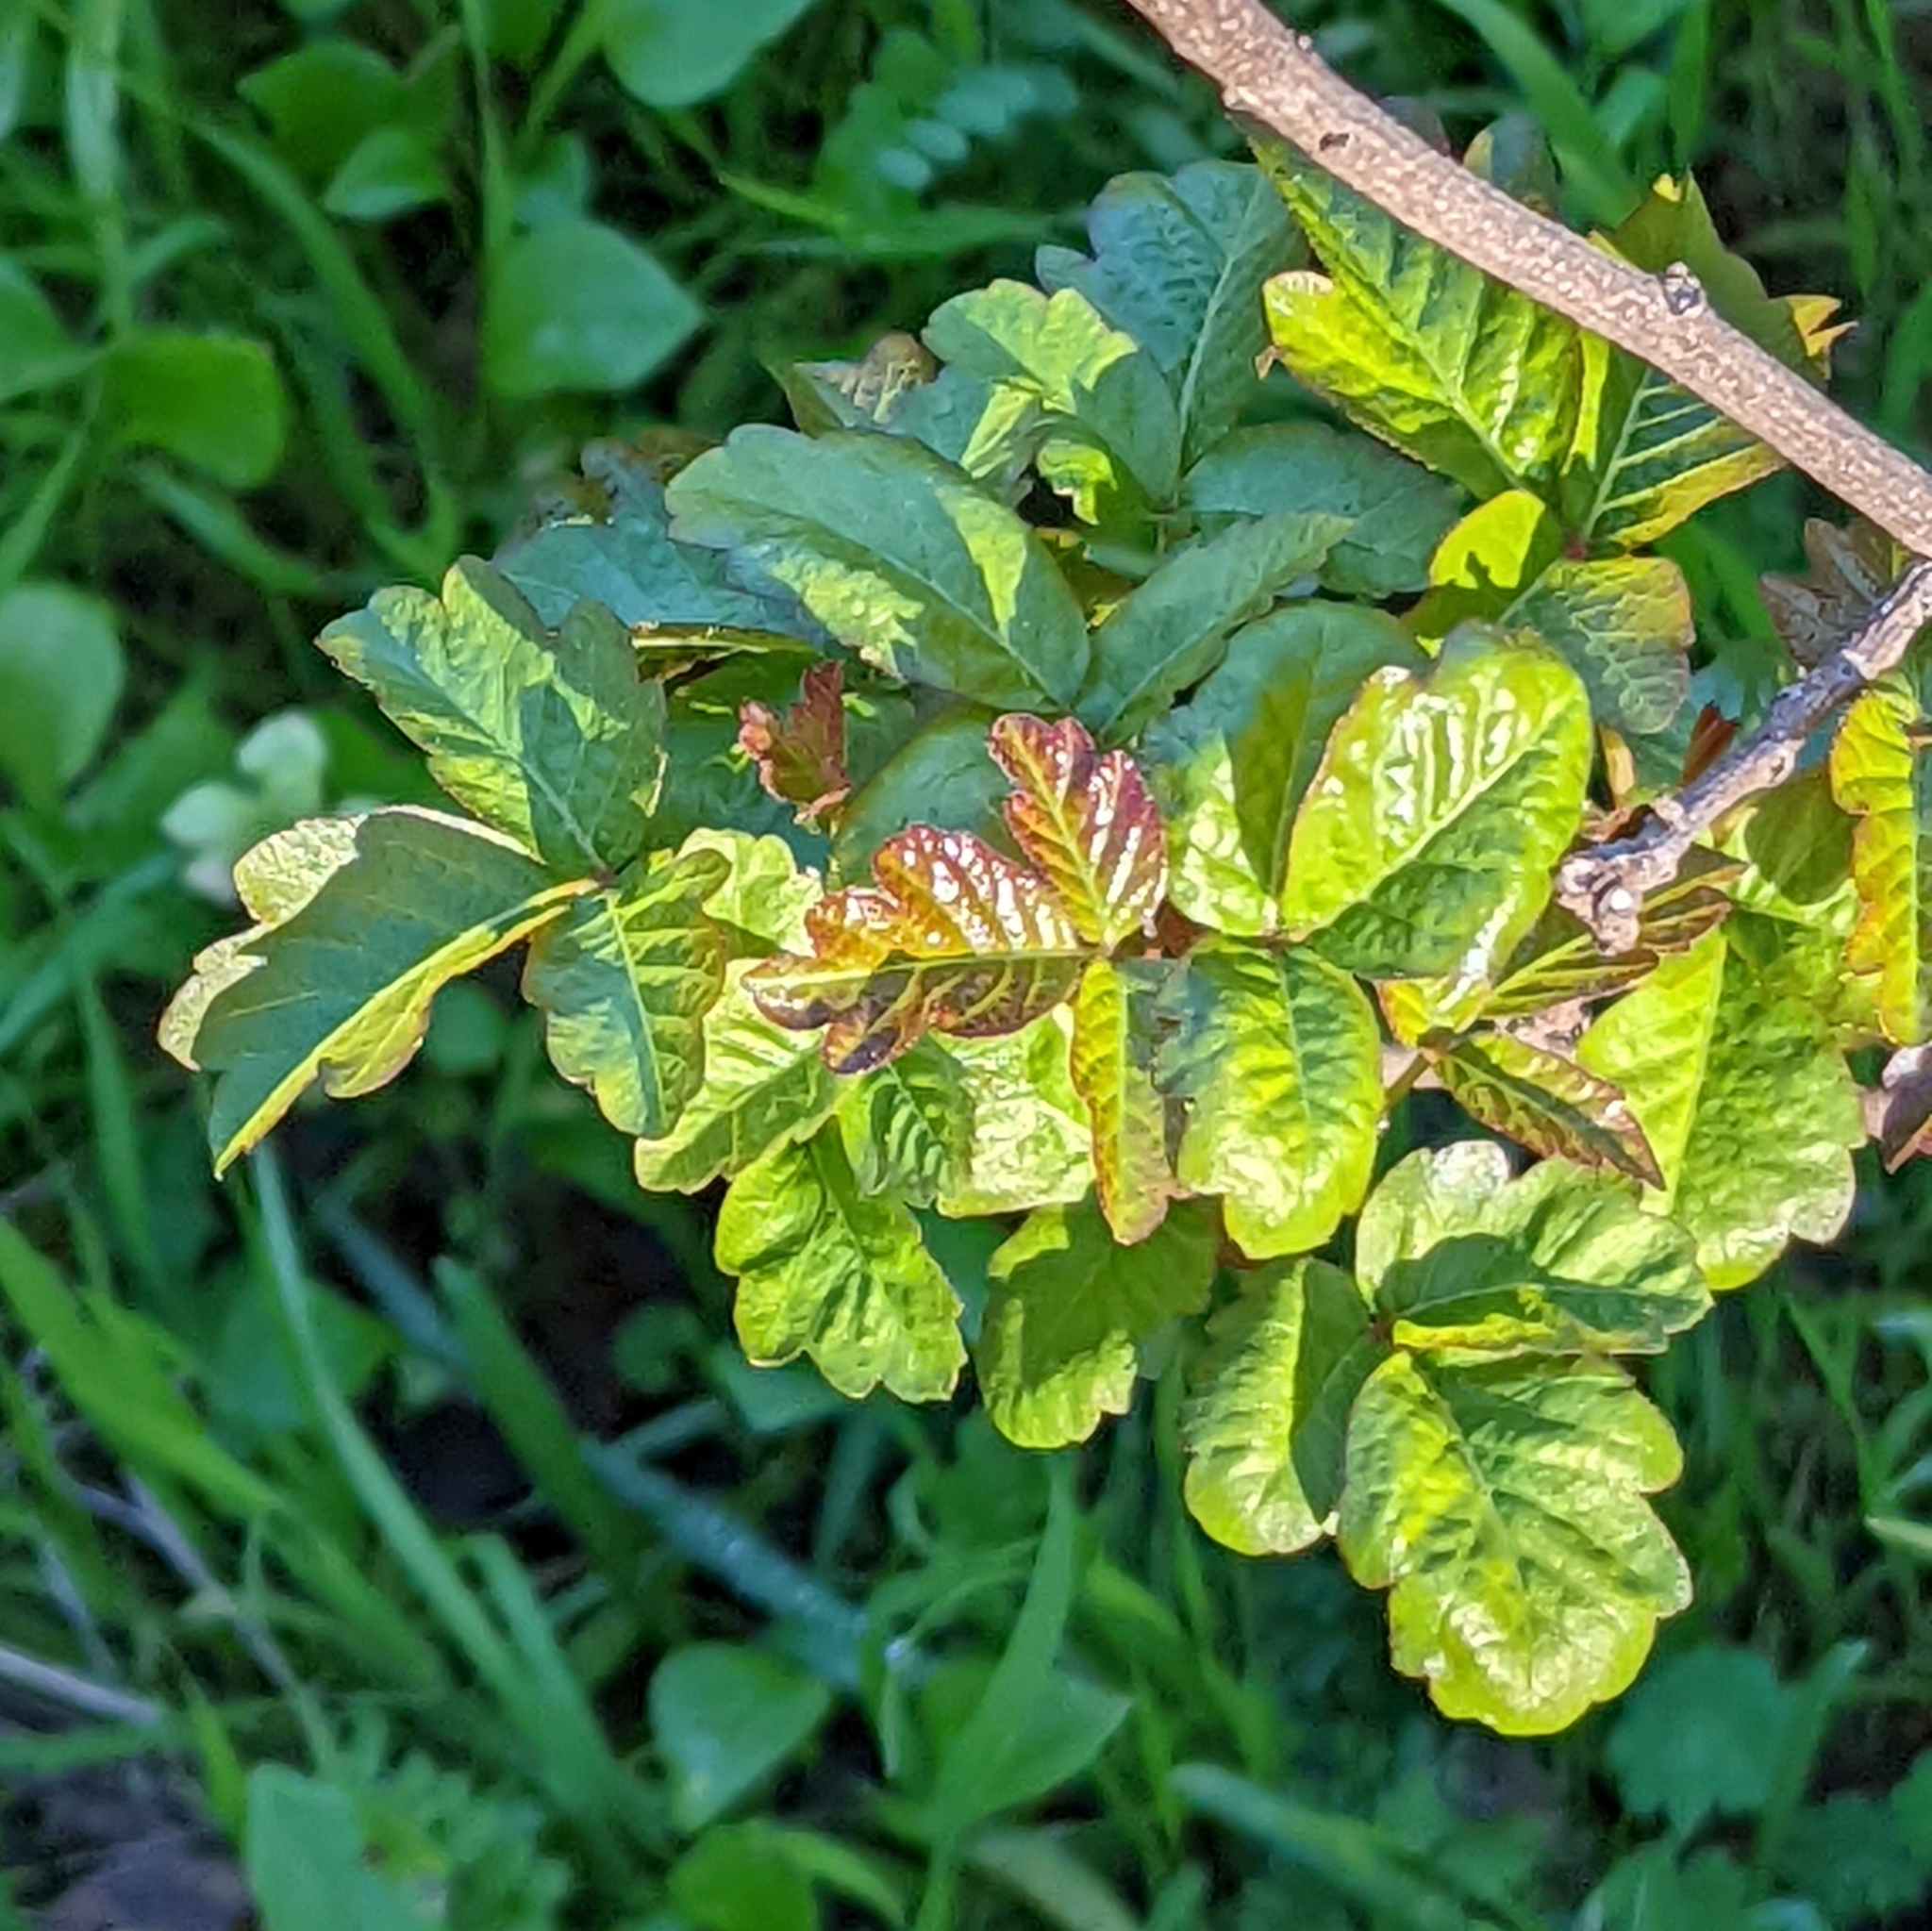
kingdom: Plantae
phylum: Tracheophyta
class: Magnoliopsida
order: Sapindales
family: Anacardiaceae
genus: Toxicodendron
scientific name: Toxicodendron diversilobum
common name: Pacific poison-oak
